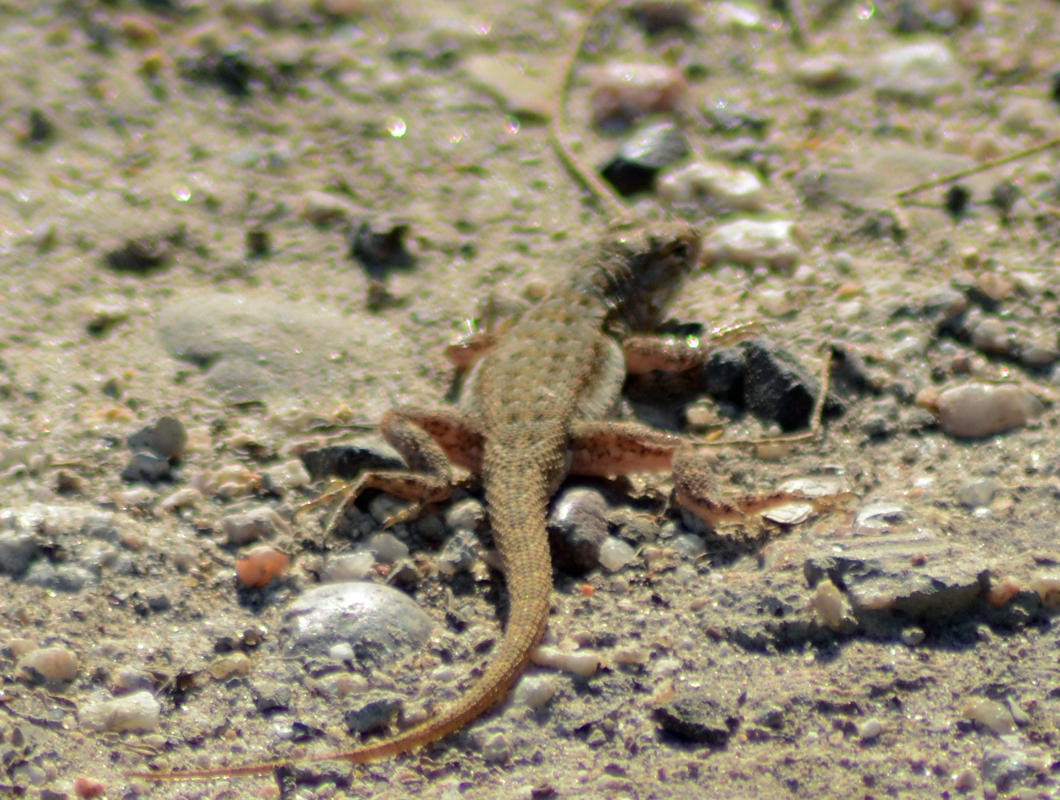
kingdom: Animalia
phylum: Chordata
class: Squamata
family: Phrynosomatidae
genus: Uta
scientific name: Uta stansburiana
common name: Side-blotched lizard
